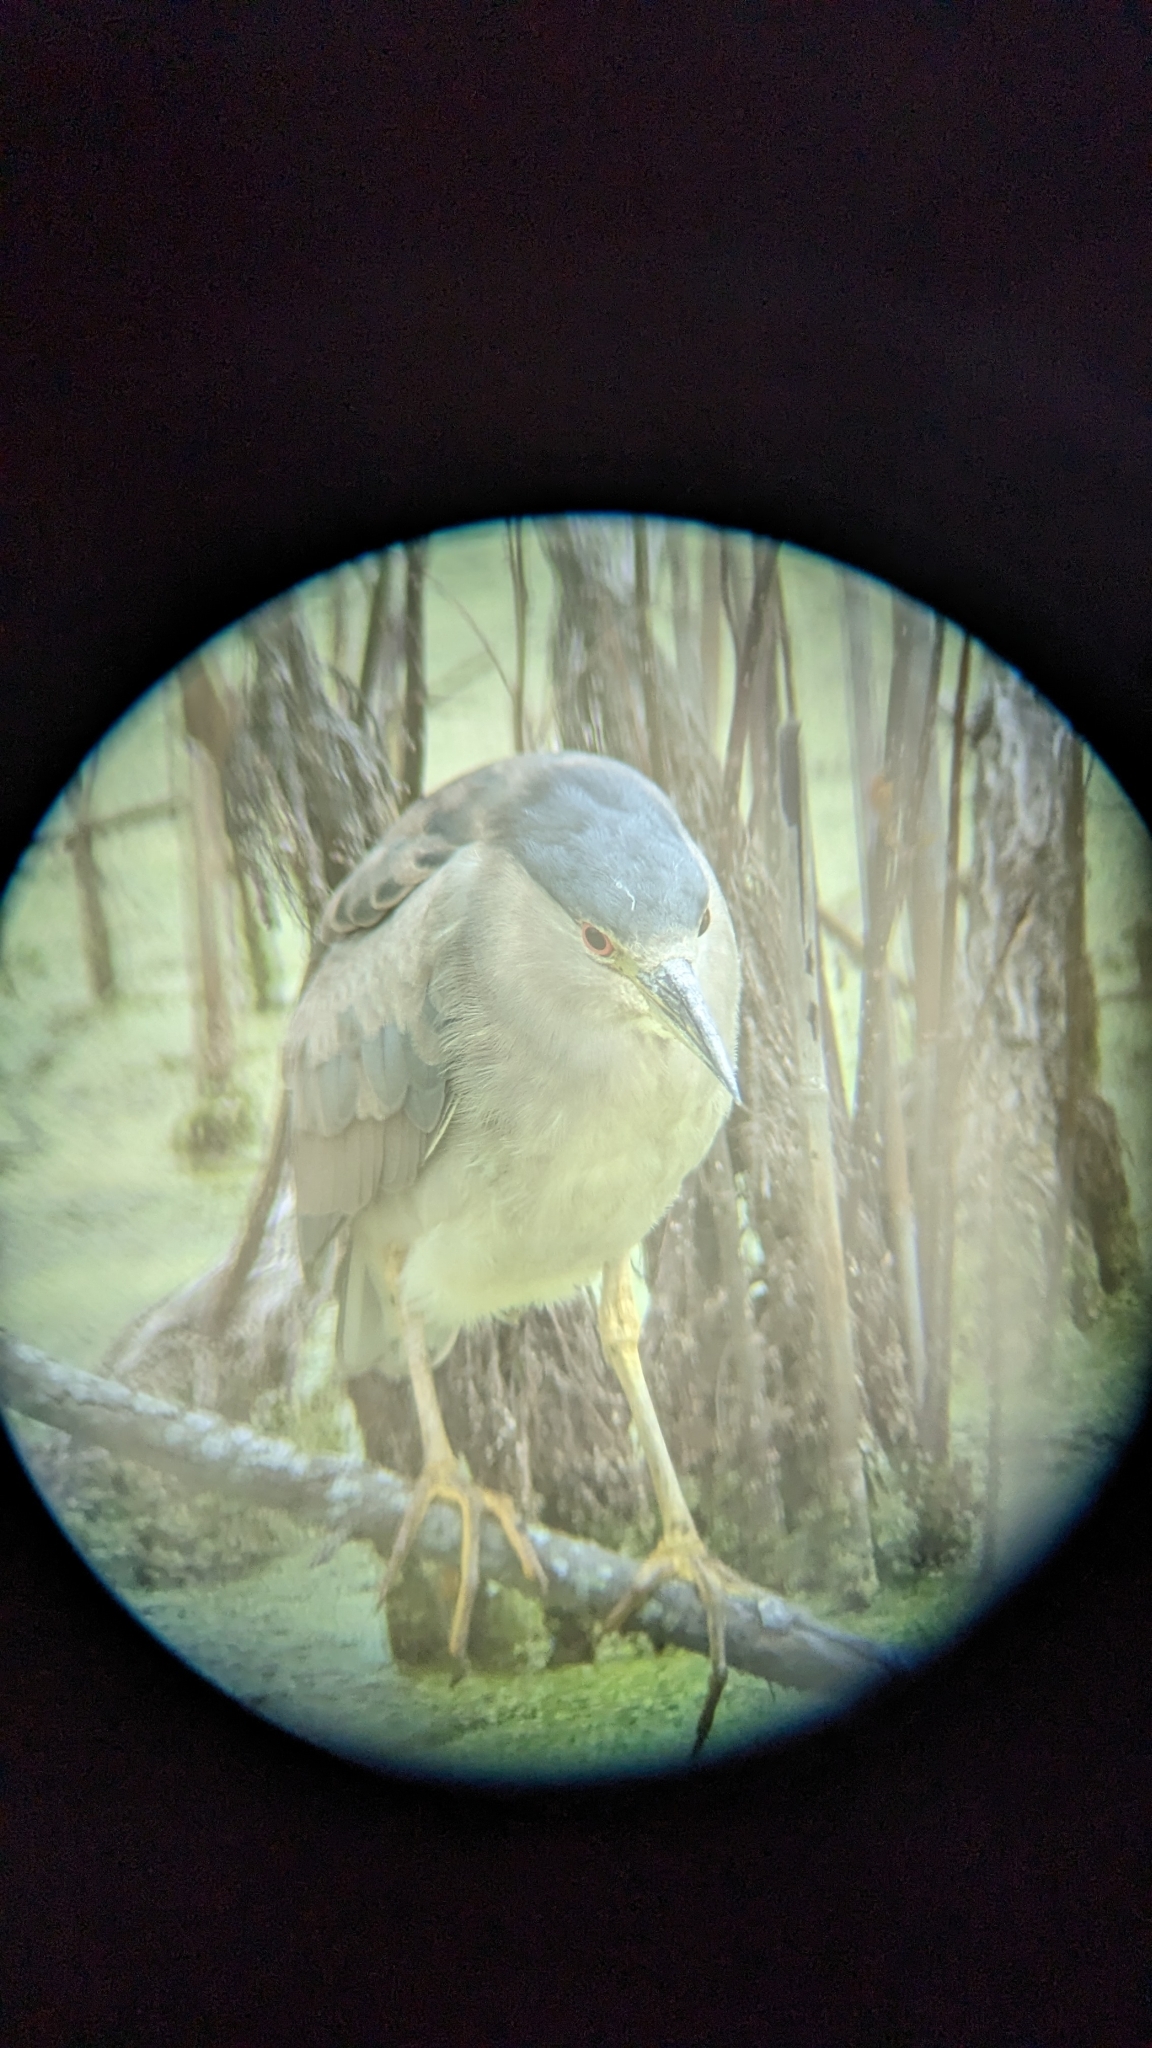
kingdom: Animalia
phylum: Chordata
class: Aves
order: Pelecaniformes
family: Ardeidae
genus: Nycticorax
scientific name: Nycticorax nycticorax
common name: Black-crowned night heron
